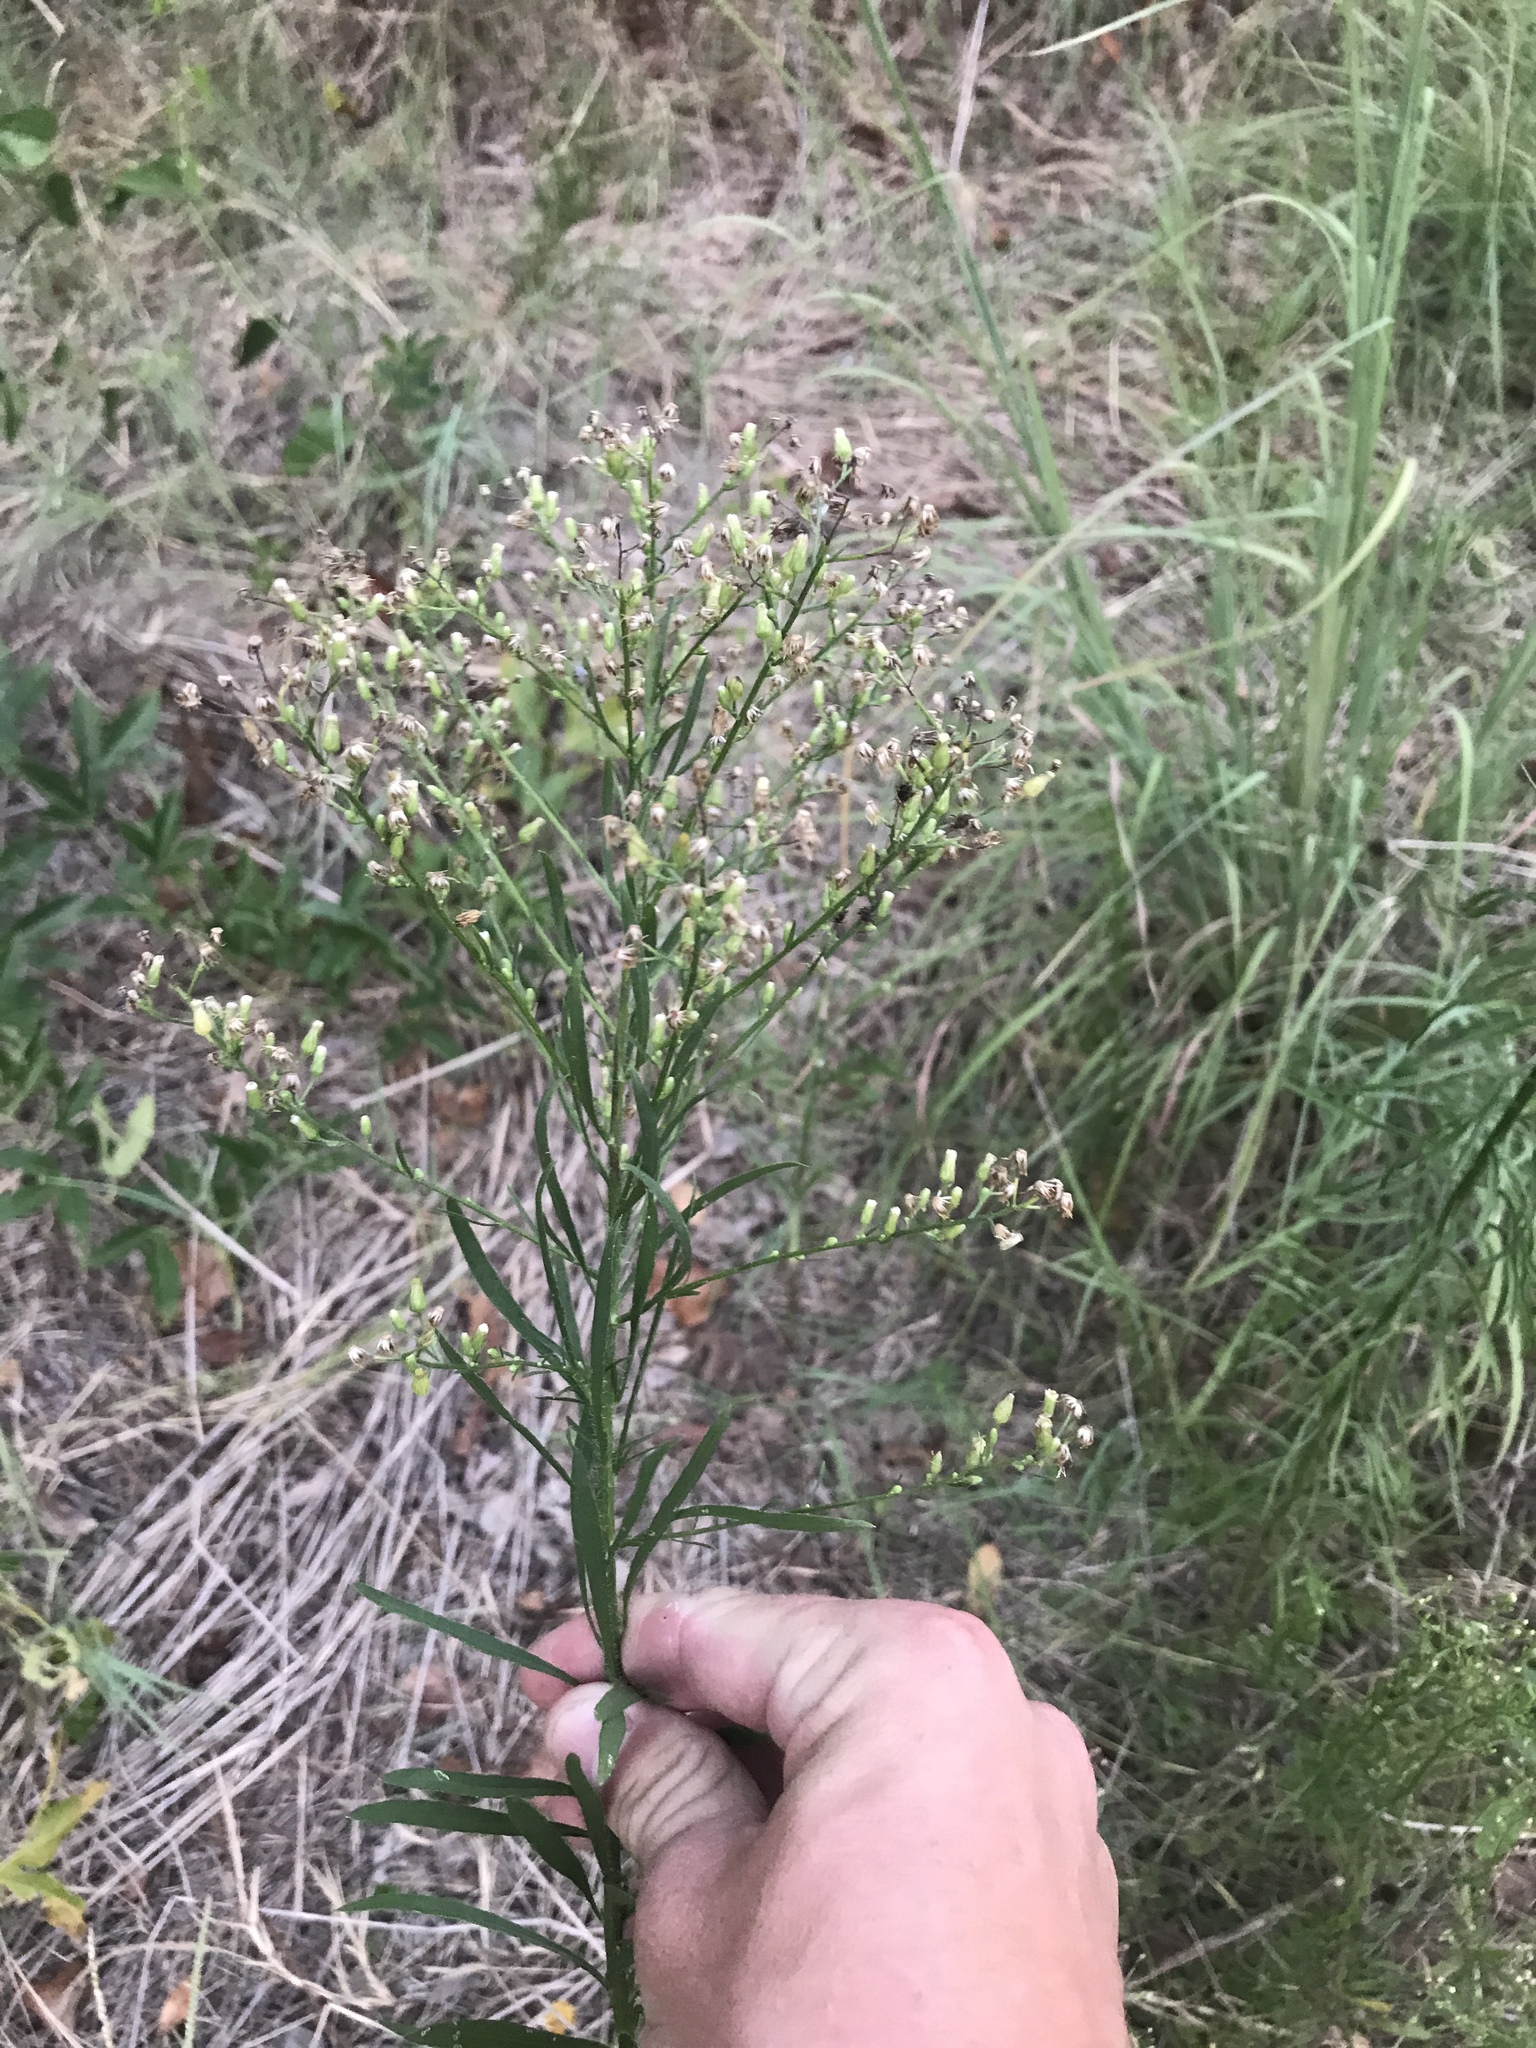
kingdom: Plantae
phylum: Tracheophyta
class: Magnoliopsida
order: Asterales
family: Asteraceae
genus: Erigeron
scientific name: Erigeron canadensis
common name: Canadian fleabane
